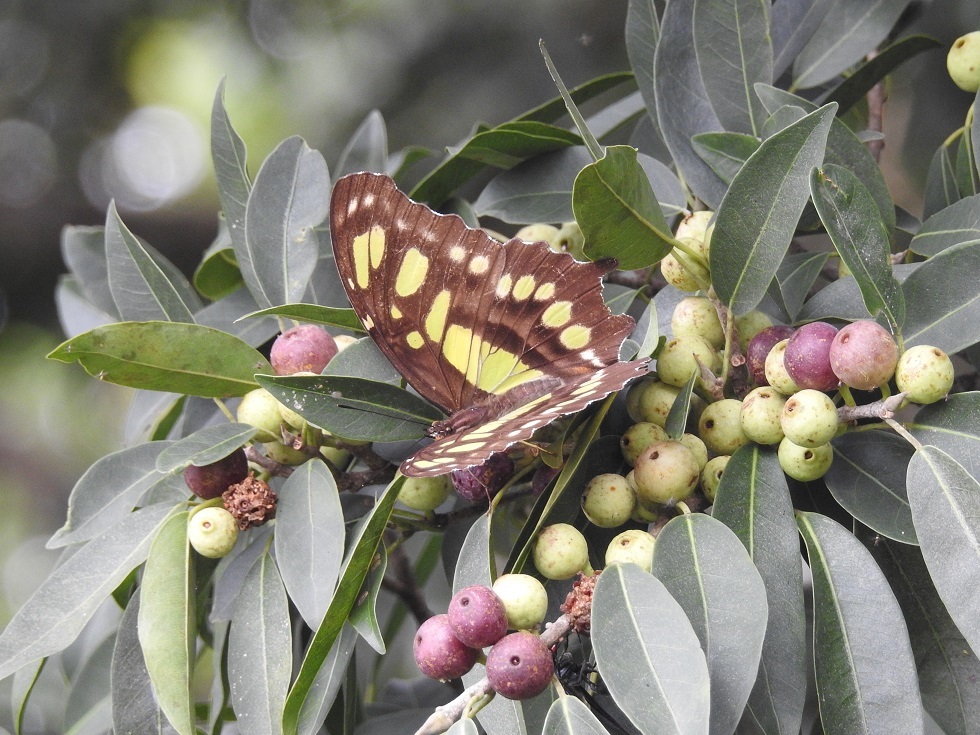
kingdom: Animalia
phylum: Arthropoda
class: Insecta
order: Lepidoptera
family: Nymphalidae
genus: Siproeta
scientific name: Siproeta stelenes
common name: Malachite
